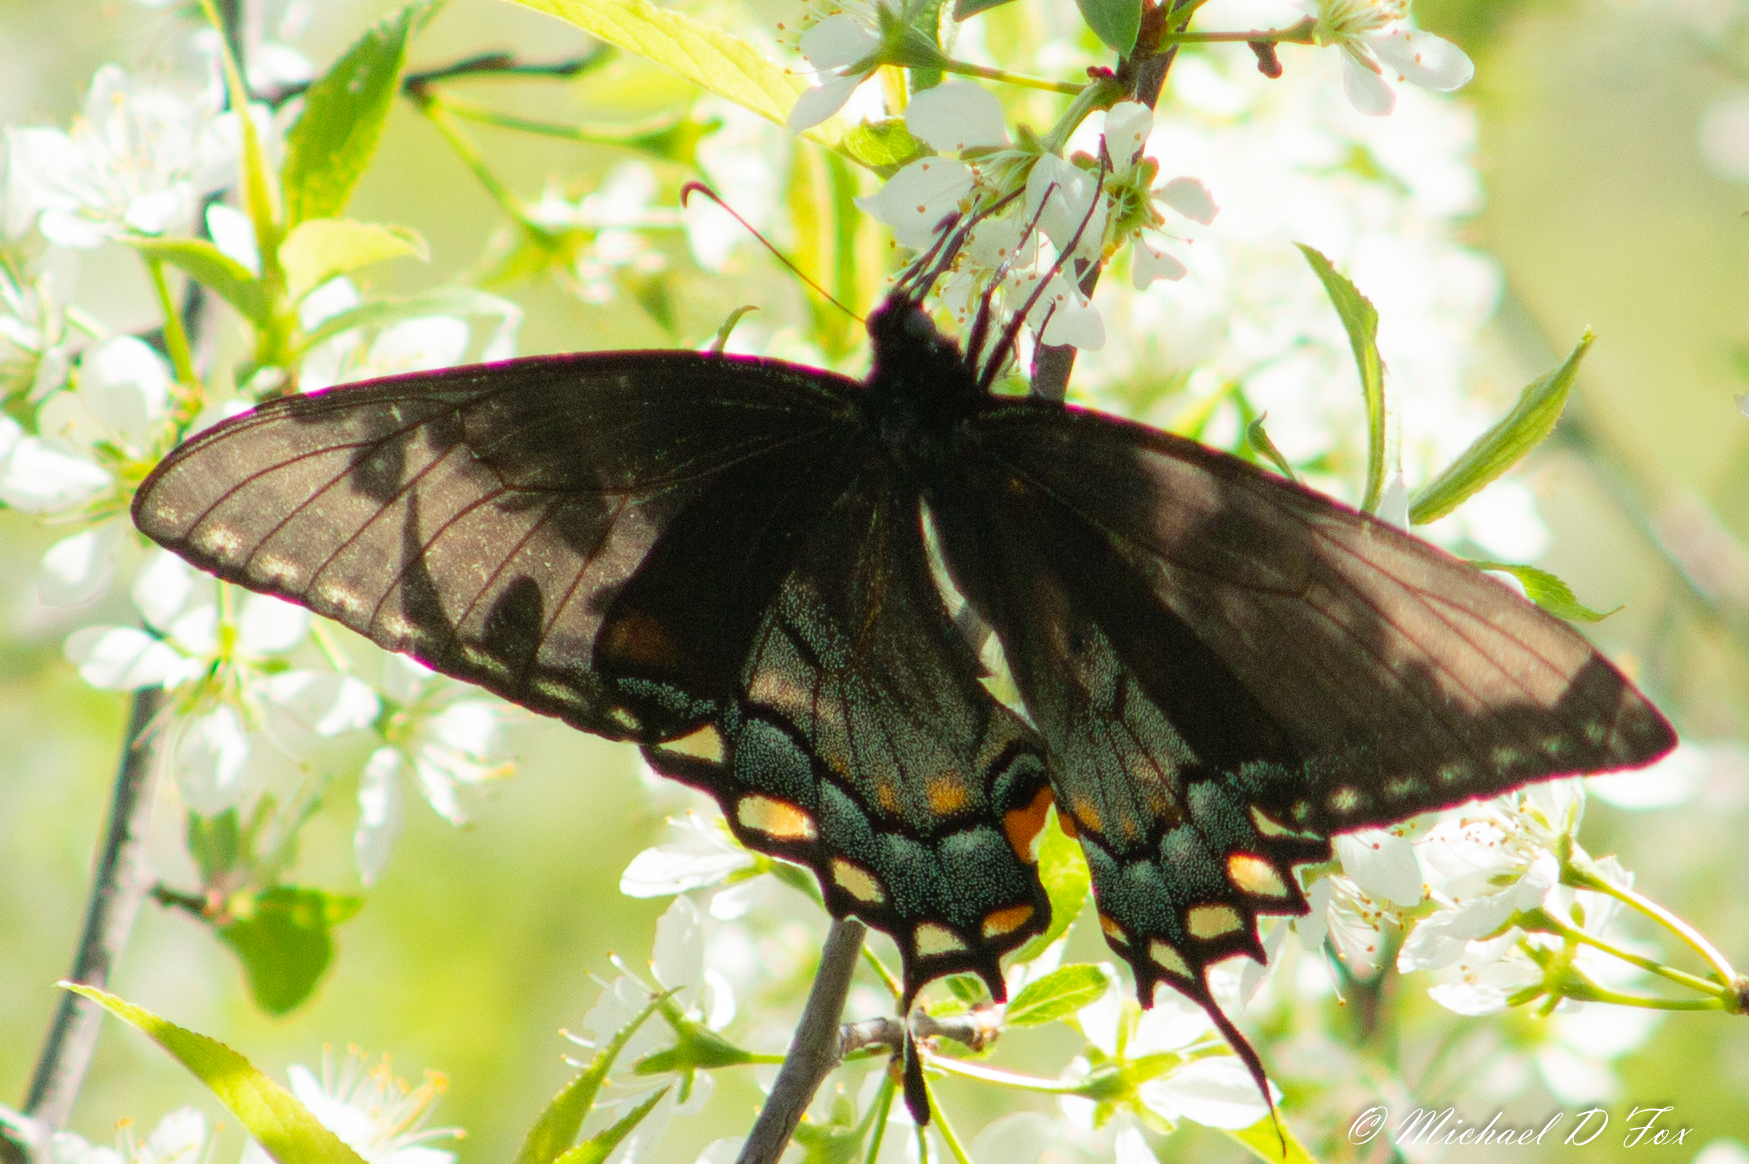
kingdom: Animalia
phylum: Arthropoda
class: Insecta
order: Lepidoptera
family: Papilionidae
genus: Papilio
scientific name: Papilio glaucus
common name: Tiger swallowtail
